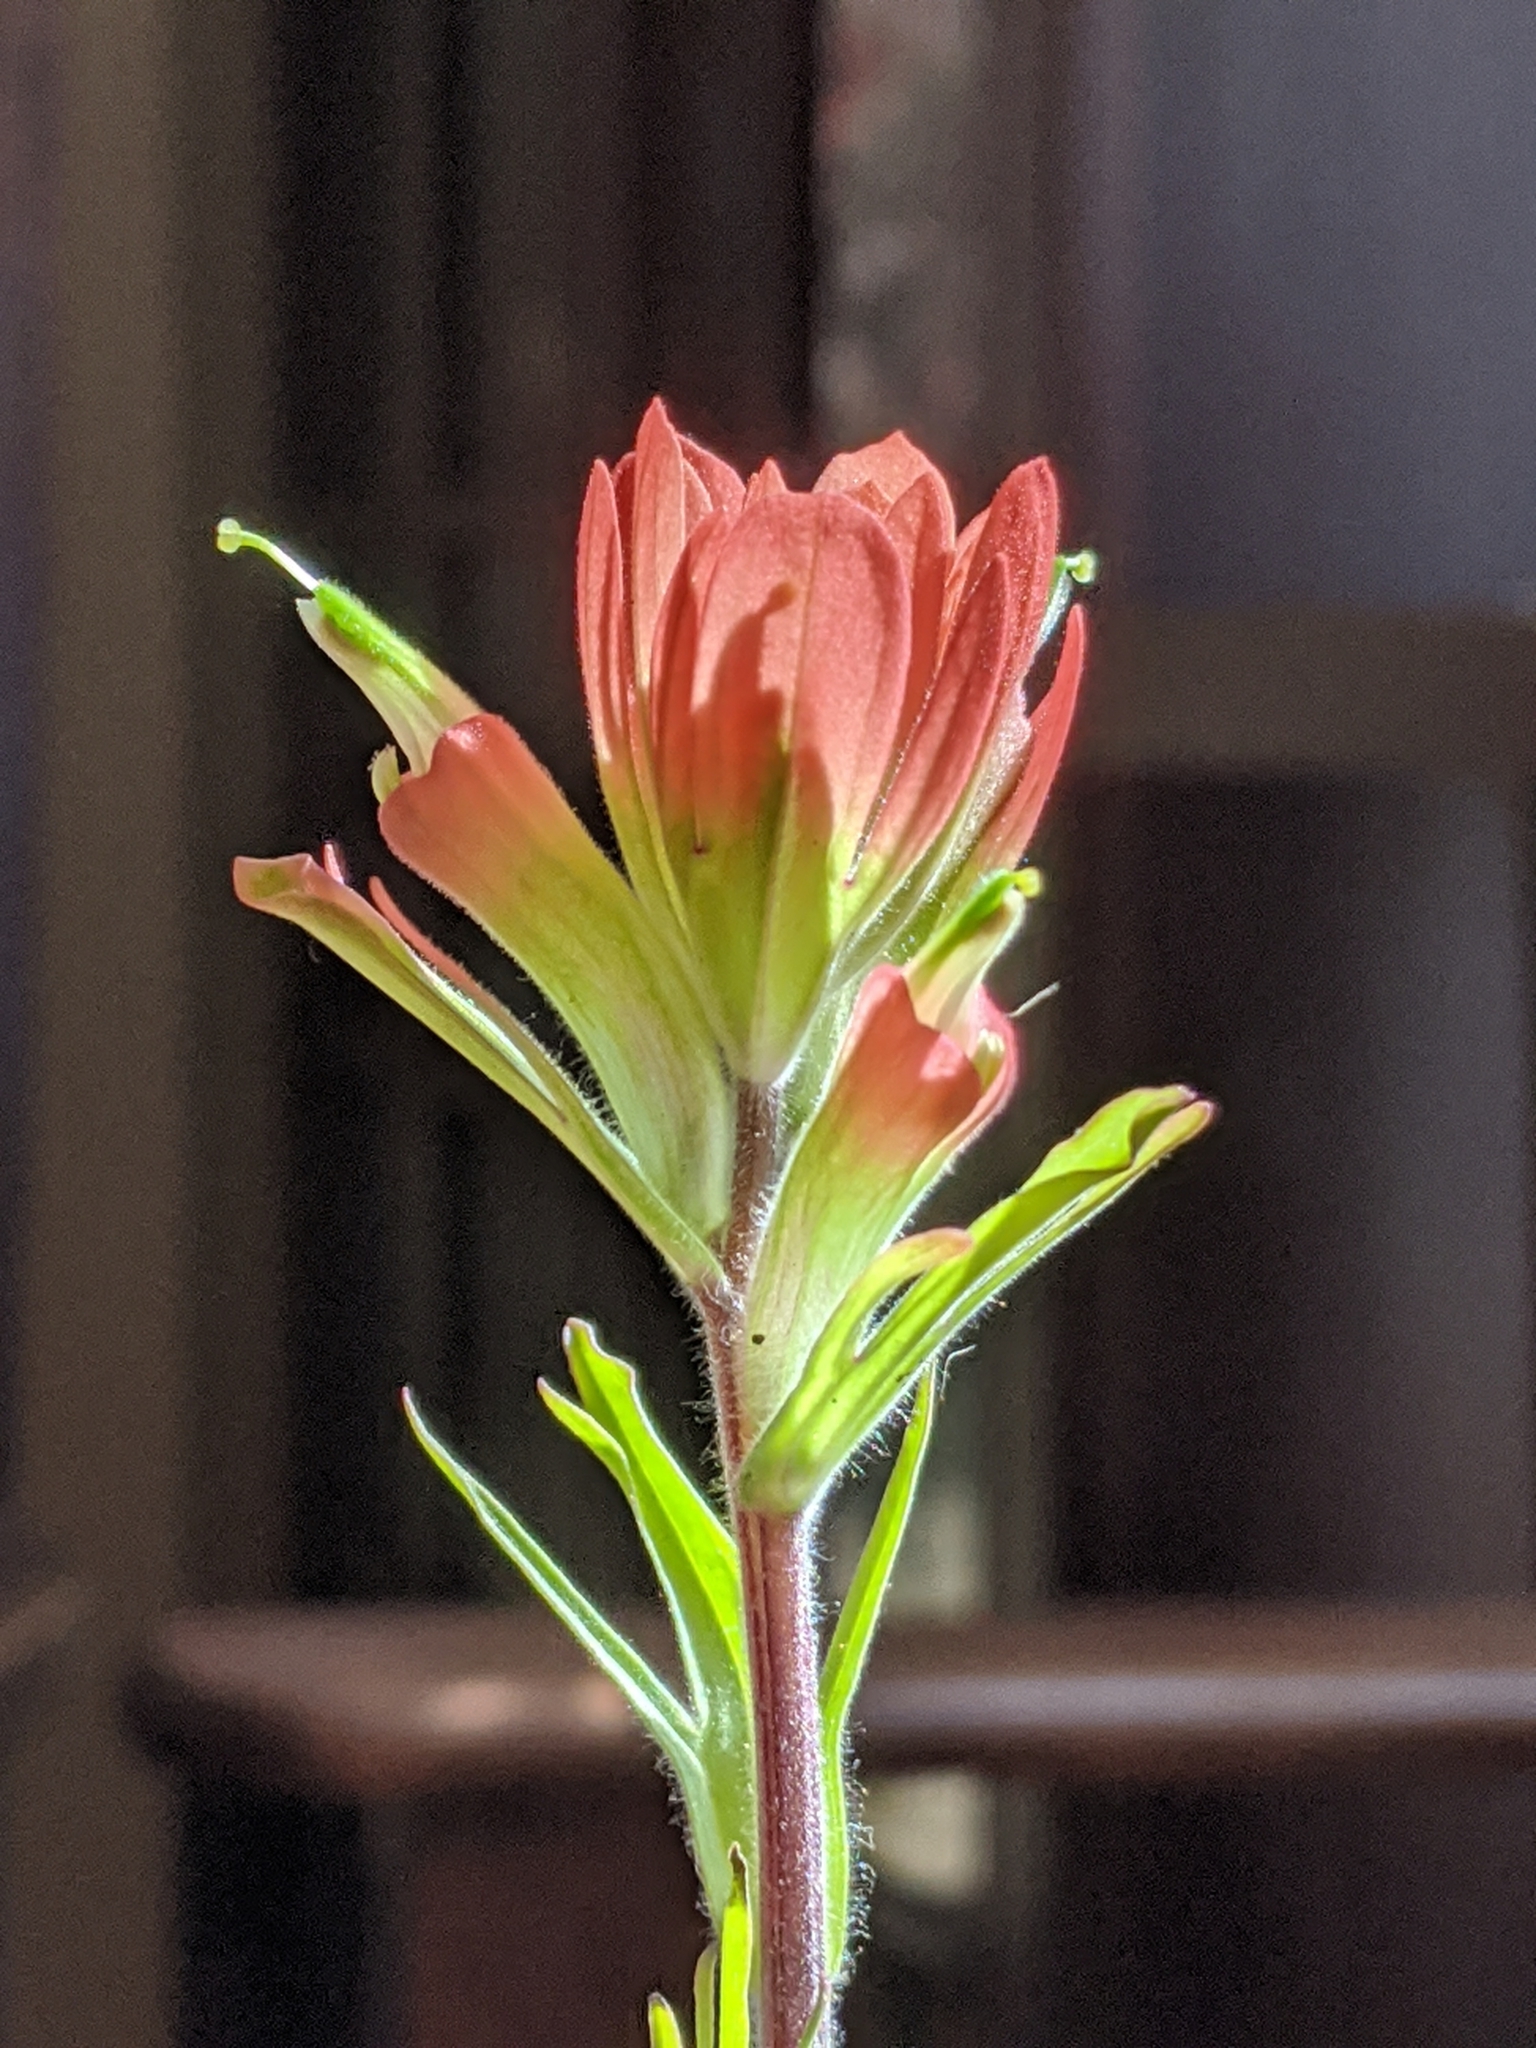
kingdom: Plantae
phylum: Tracheophyta
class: Magnoliopsida
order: Lamiales
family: Orobanchaceae
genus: Castilleja
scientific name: Castilleja coccinea
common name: Scarlet paintbrush
